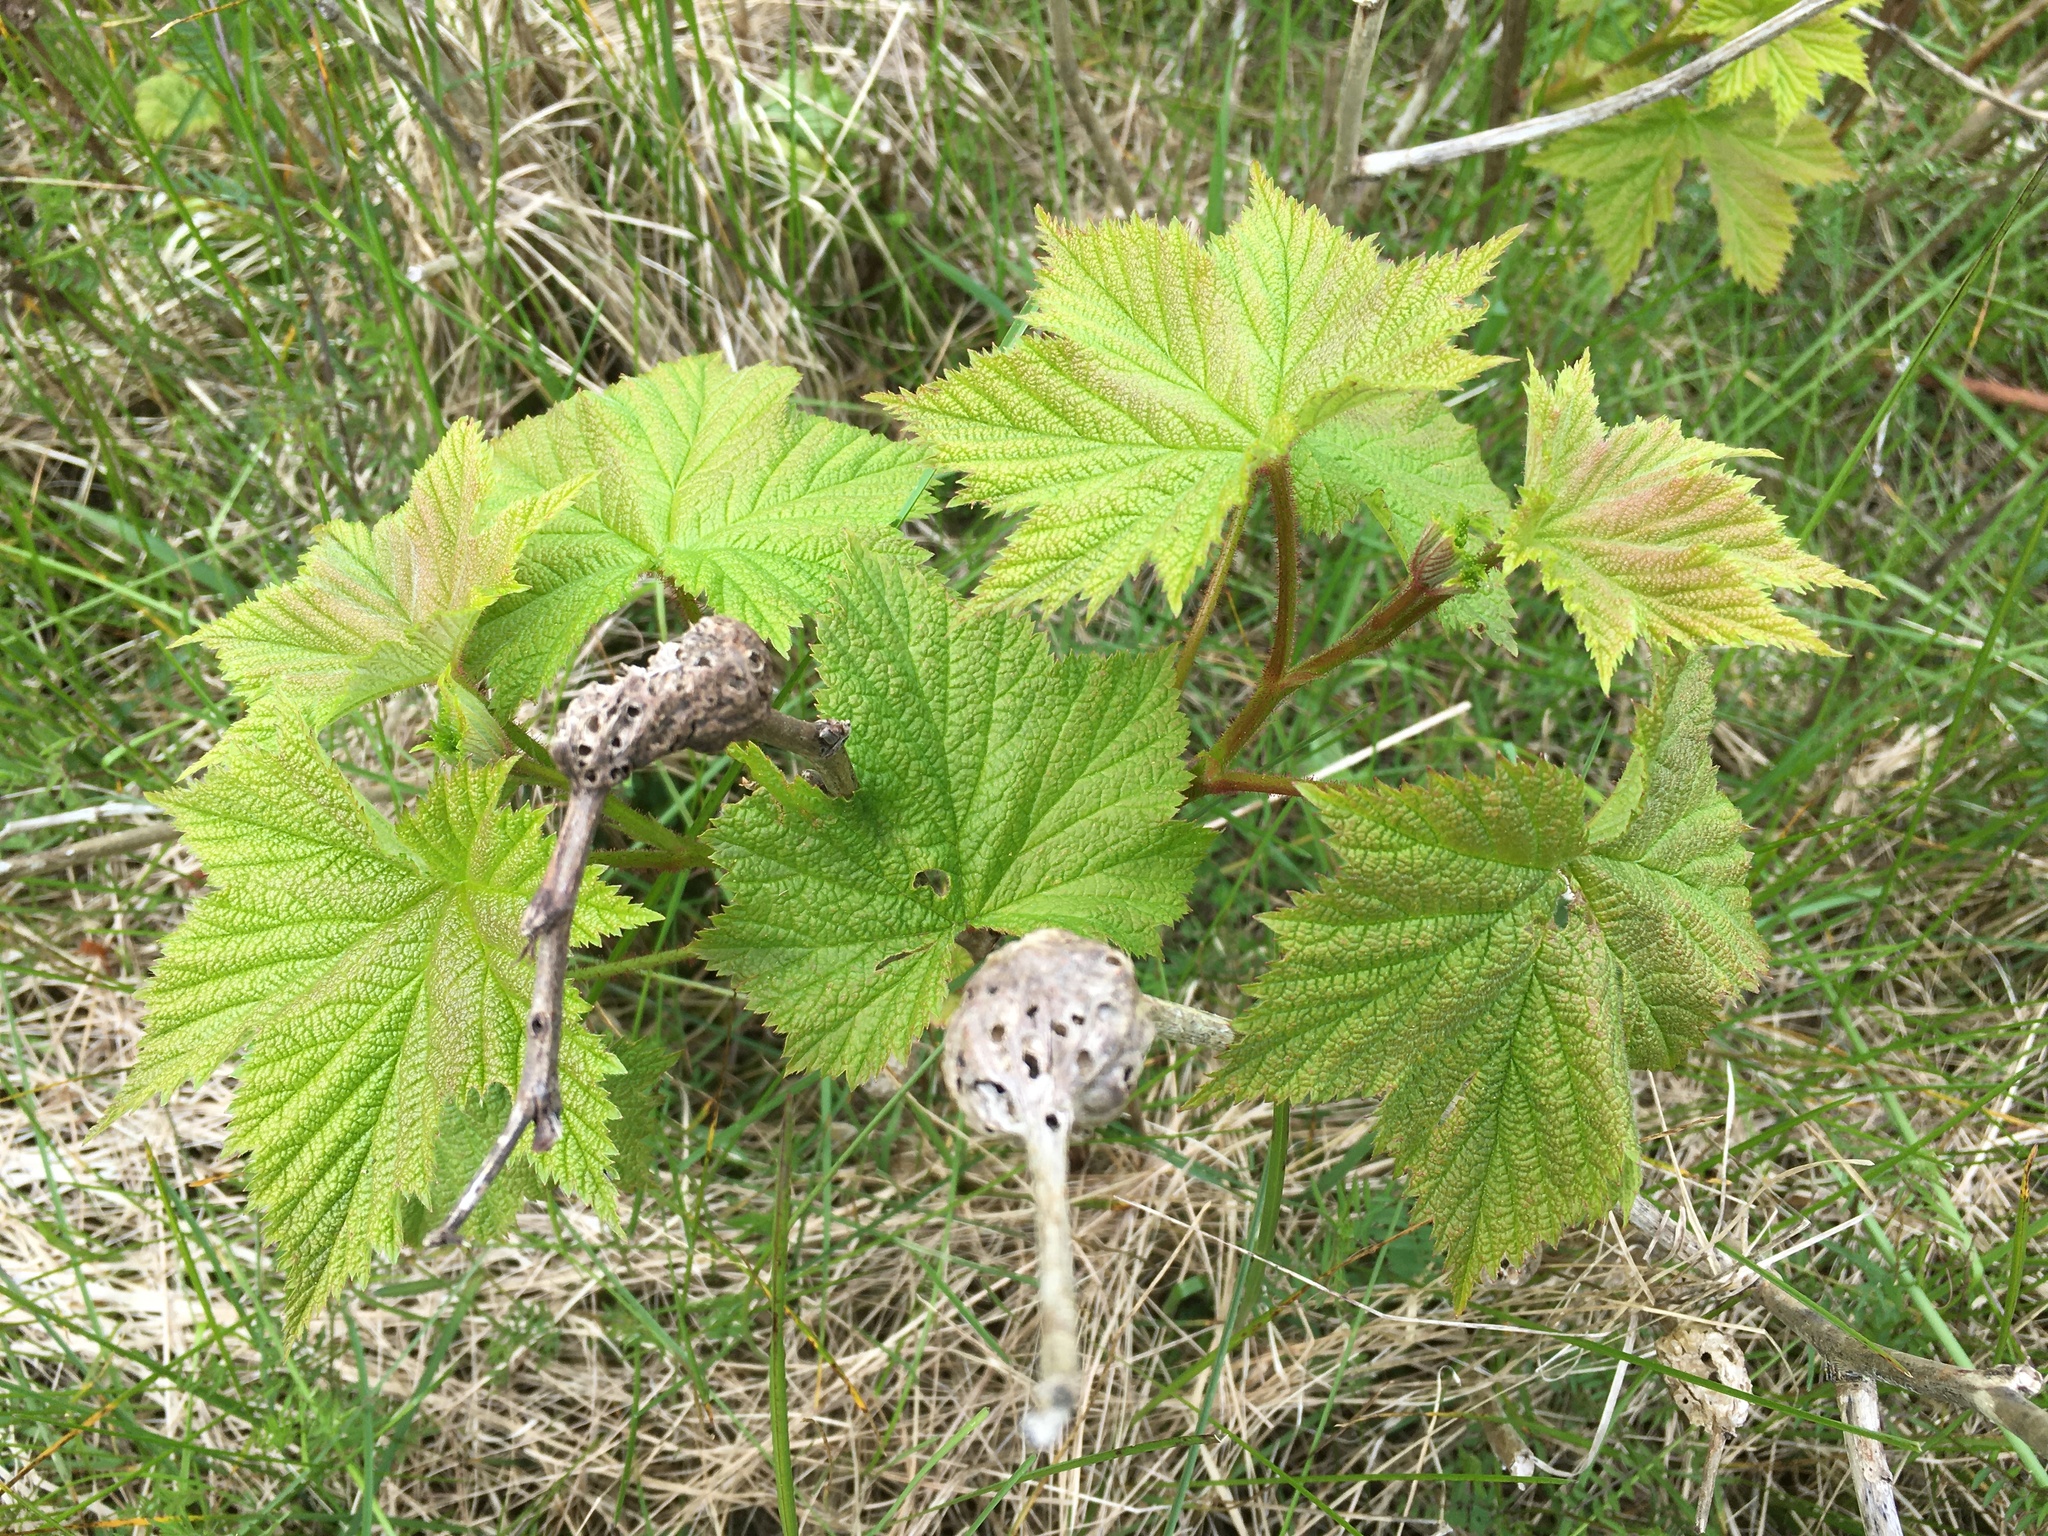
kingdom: Animalia
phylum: Arthropoda
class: Insecta
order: Hymenoptera
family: Cynipidae
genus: Diastrophus
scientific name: Diastrophus
